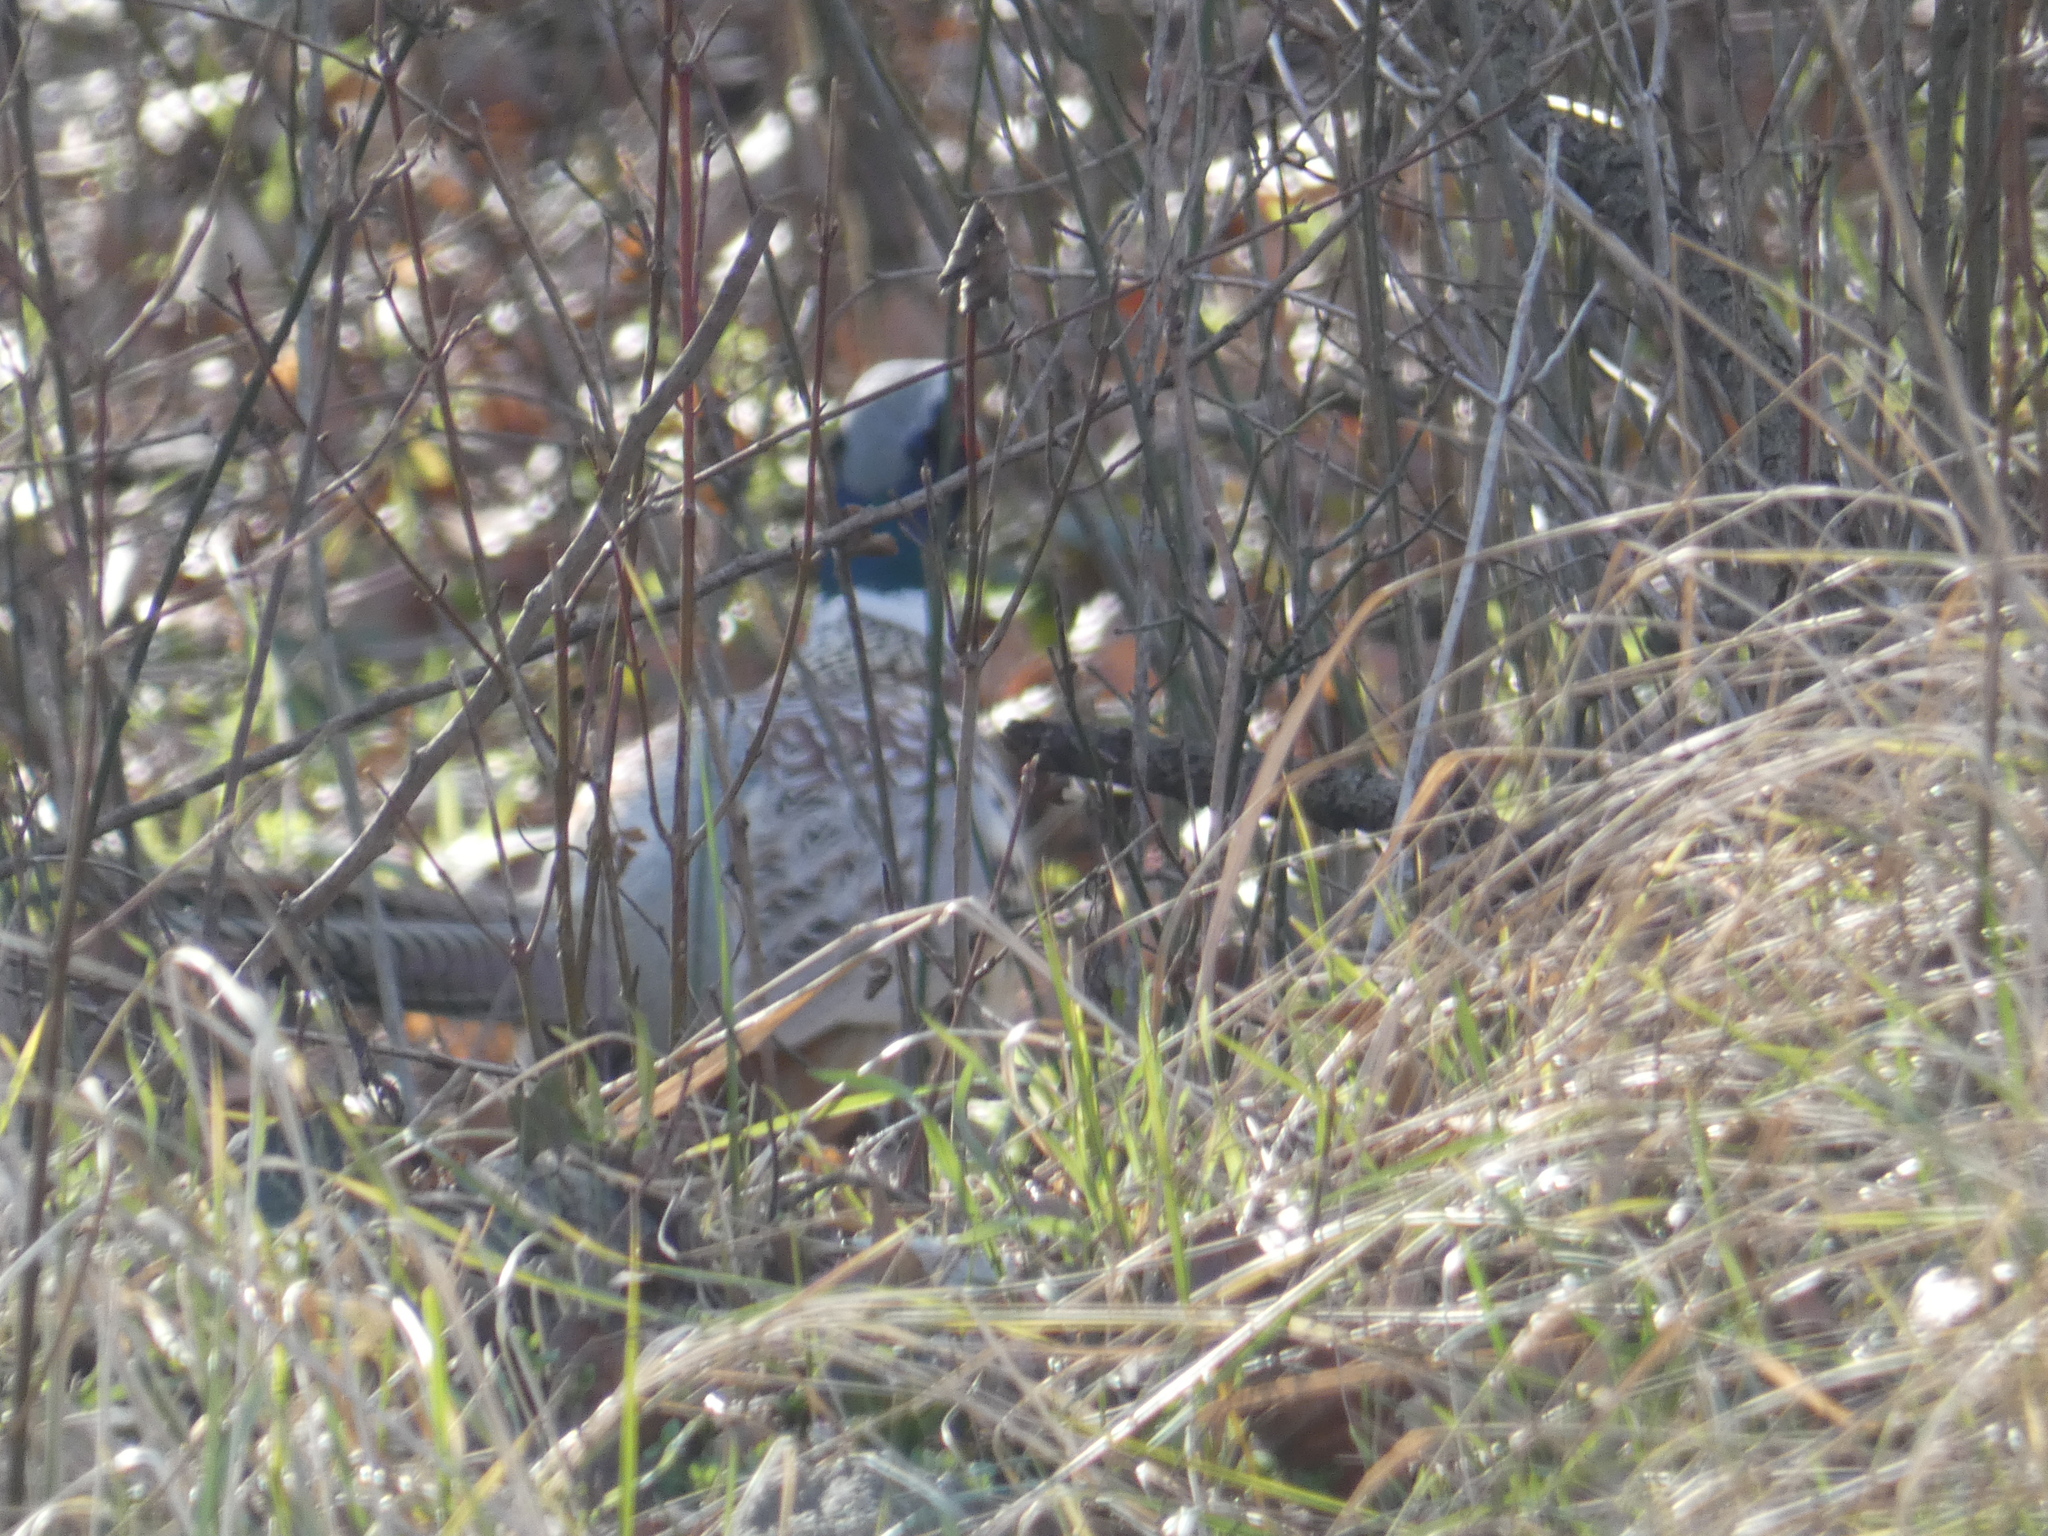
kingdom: Animalia
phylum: Chordata
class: Aves
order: Galliformes
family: Phasianidae
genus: Phasianus
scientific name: Phasianus colchicus
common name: Common pheasant
